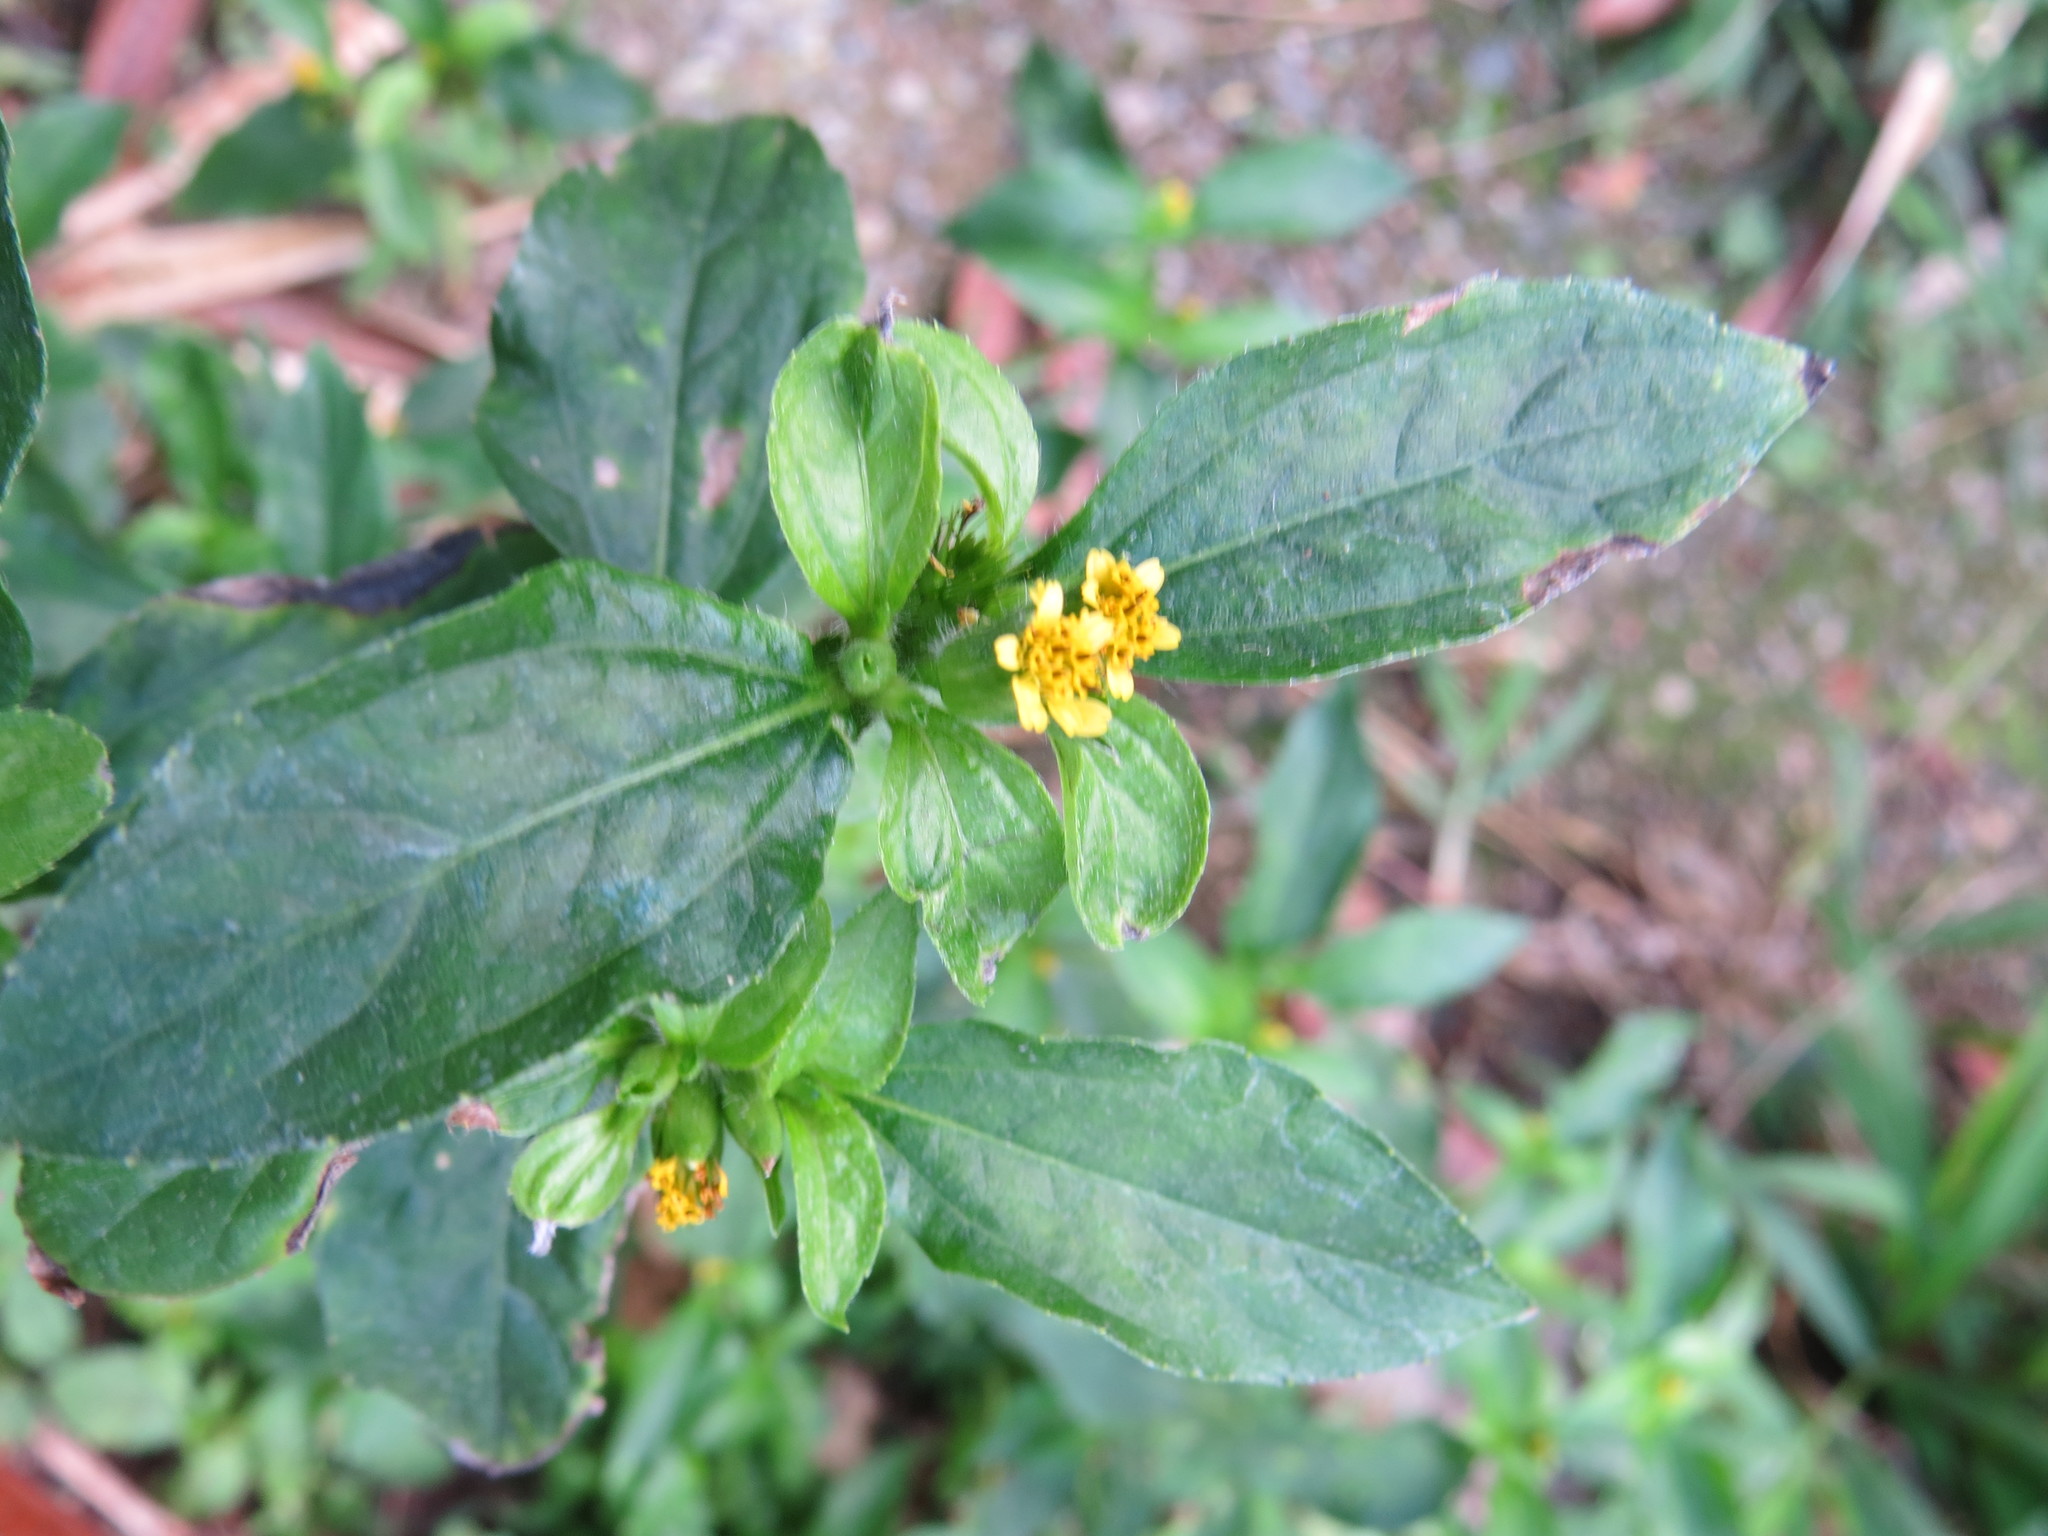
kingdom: Plantae
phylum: Tracheophyta
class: Magnoliopsida
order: Asterales
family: Asteraceae
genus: Synedrella
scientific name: Synedrella nodiflora
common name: Nodeweed
